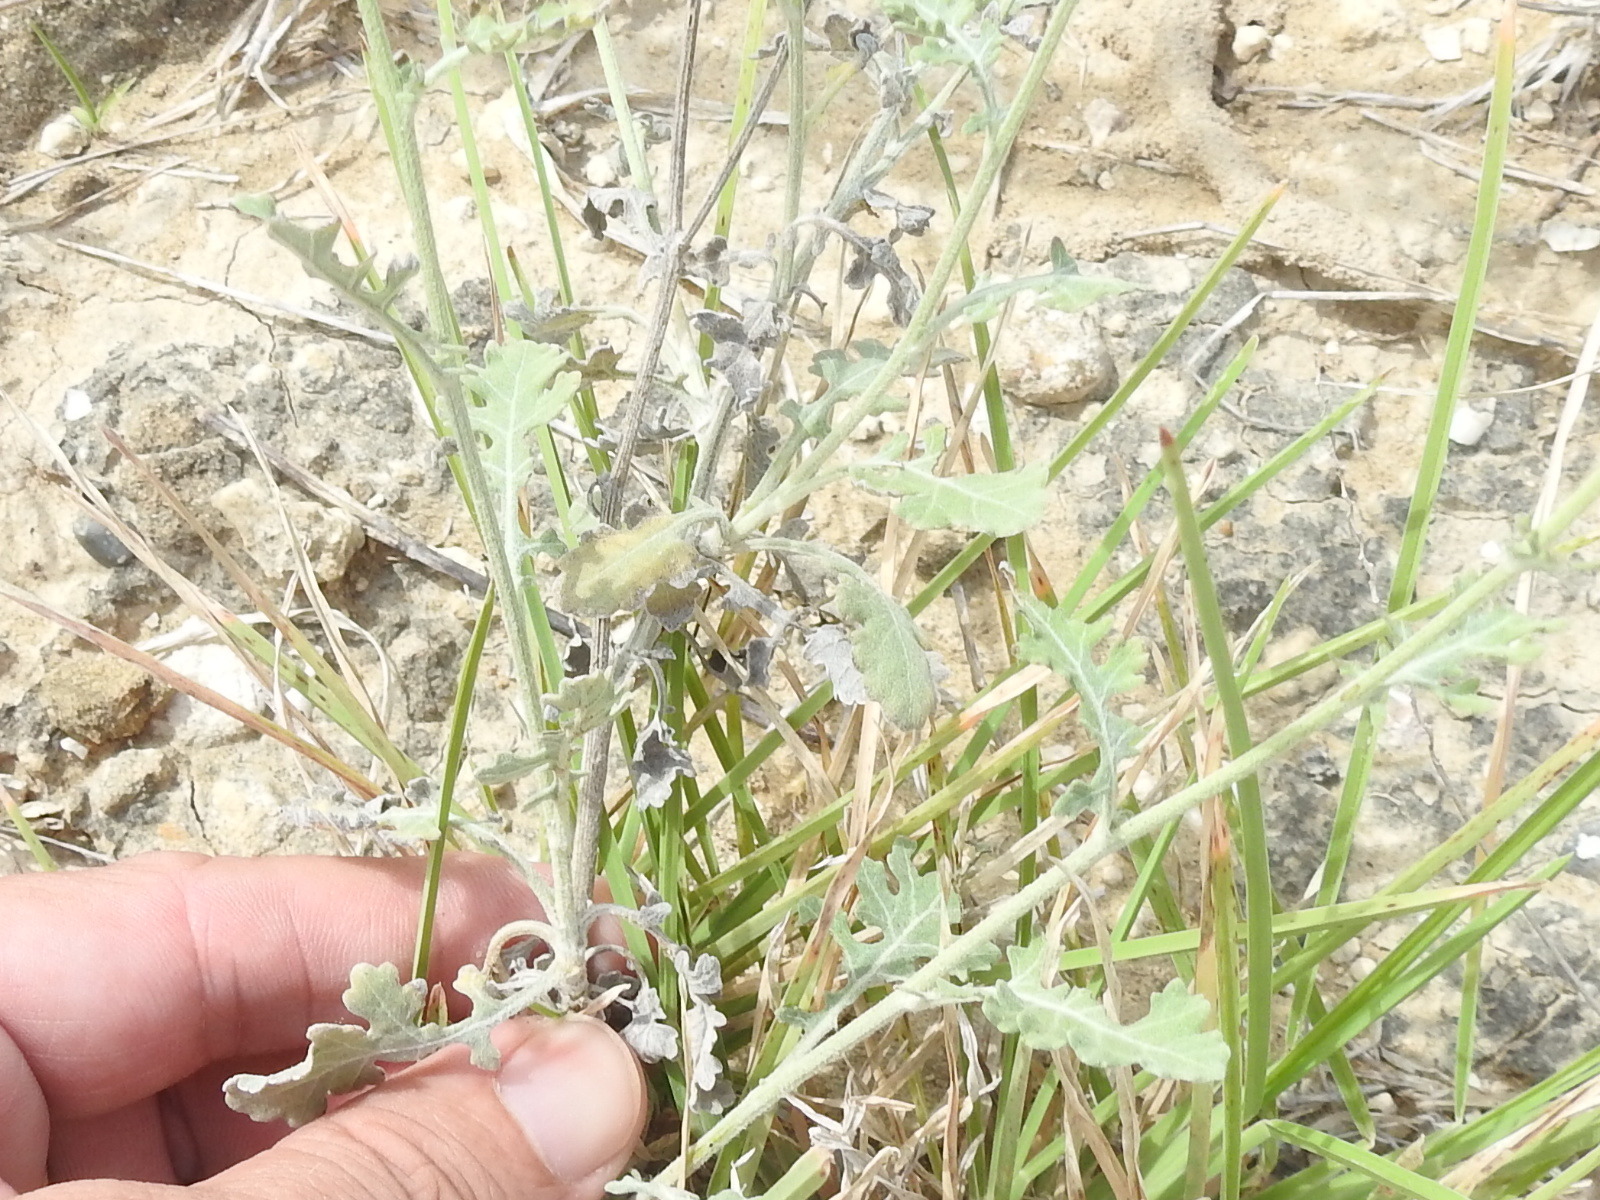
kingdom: Plantae
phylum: Tracheophyta
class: Magnoliopsida
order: Asterales
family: Asteraceae
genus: Parthenium
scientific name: Parthenium confertum
